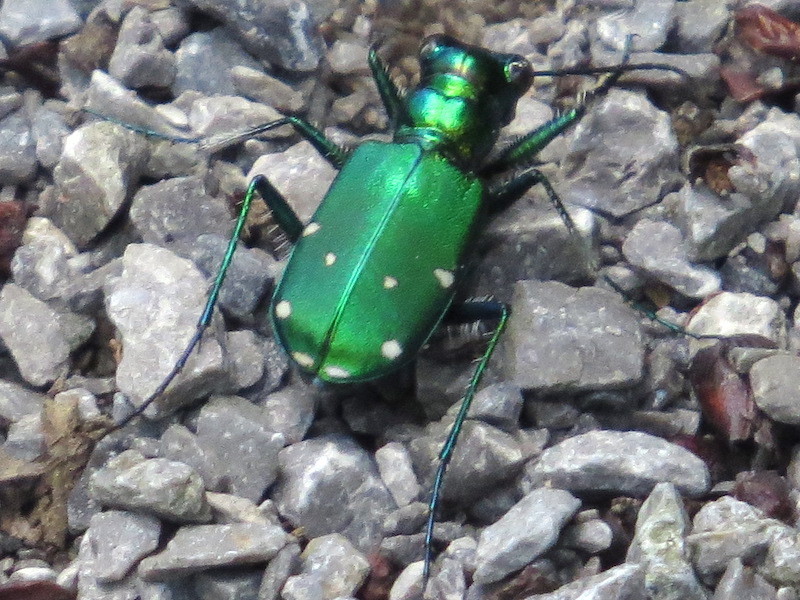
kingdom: Animalia
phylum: Arthropoda
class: Insecta
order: Coleoptera
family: Carabidae
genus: Cicindela
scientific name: Cicindela sexguttata
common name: Six-spotted tiger beetle
